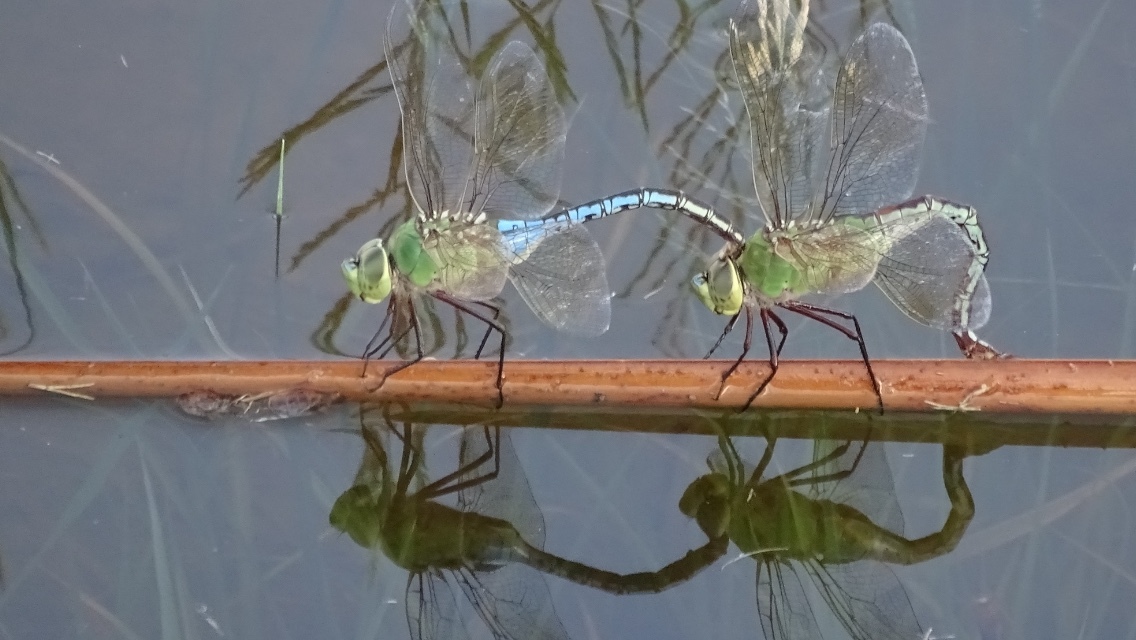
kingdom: Animalia
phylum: Arthropoda
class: Insecta
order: Odonata
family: Aeshnidae
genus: Anax
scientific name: Anax junius
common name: Common green darner
